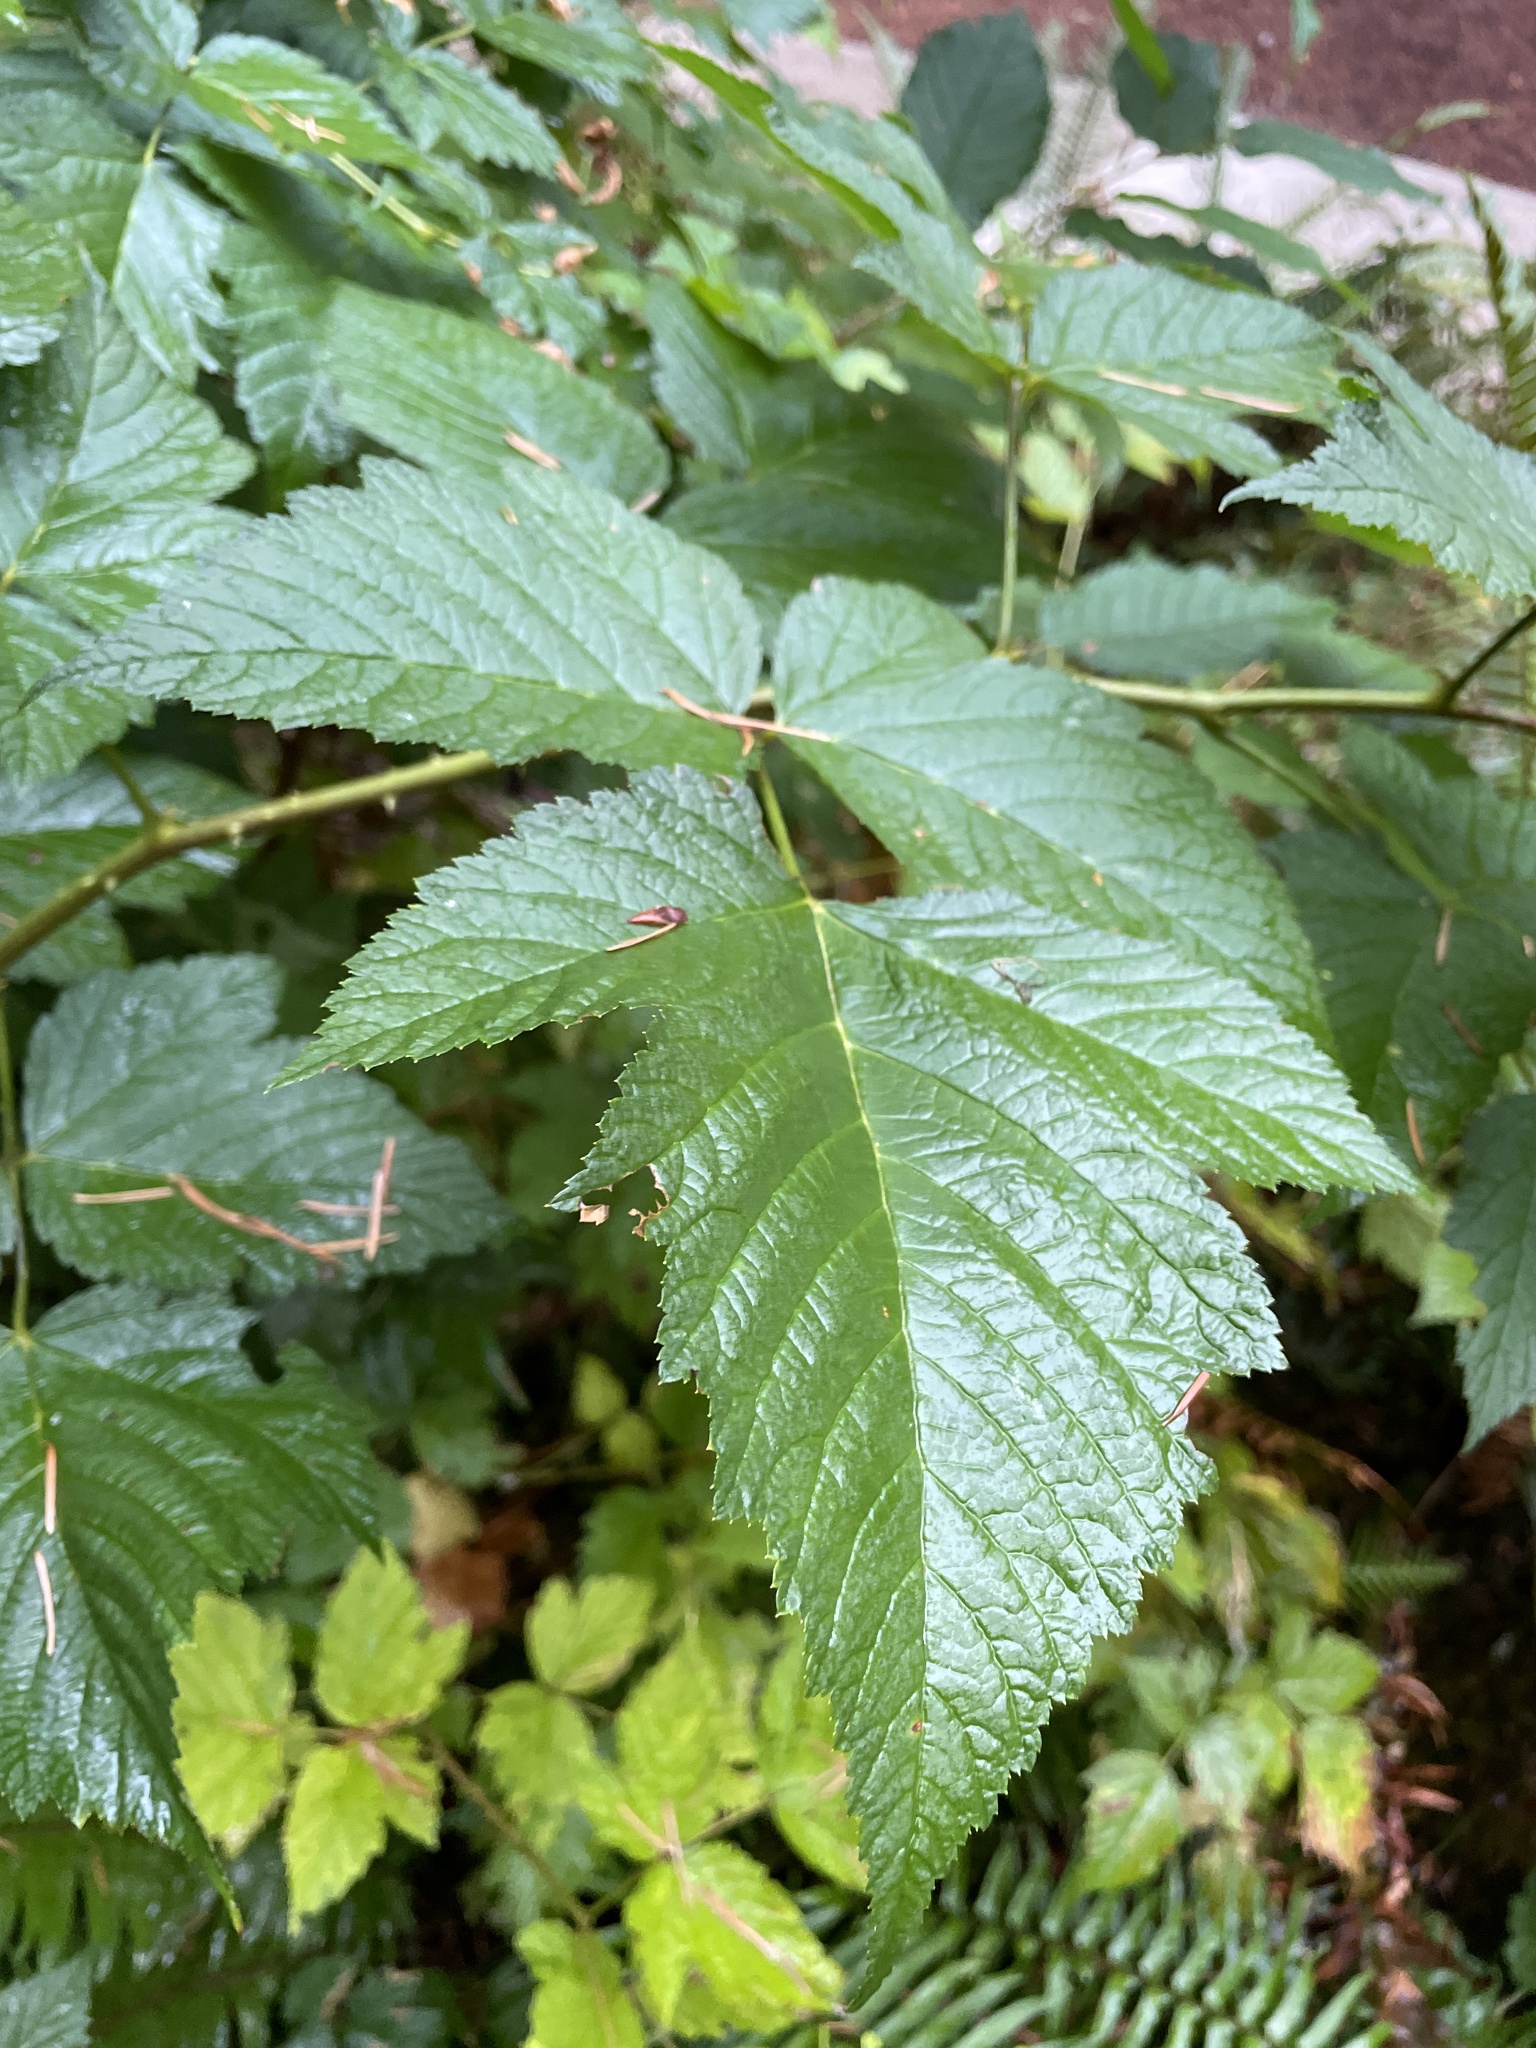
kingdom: Plantae
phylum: Tracheophyta
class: Magnoliopsida
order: Rosales
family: Rosaceae
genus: Rubus
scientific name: Rubus spectabilis
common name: Salmonberry
